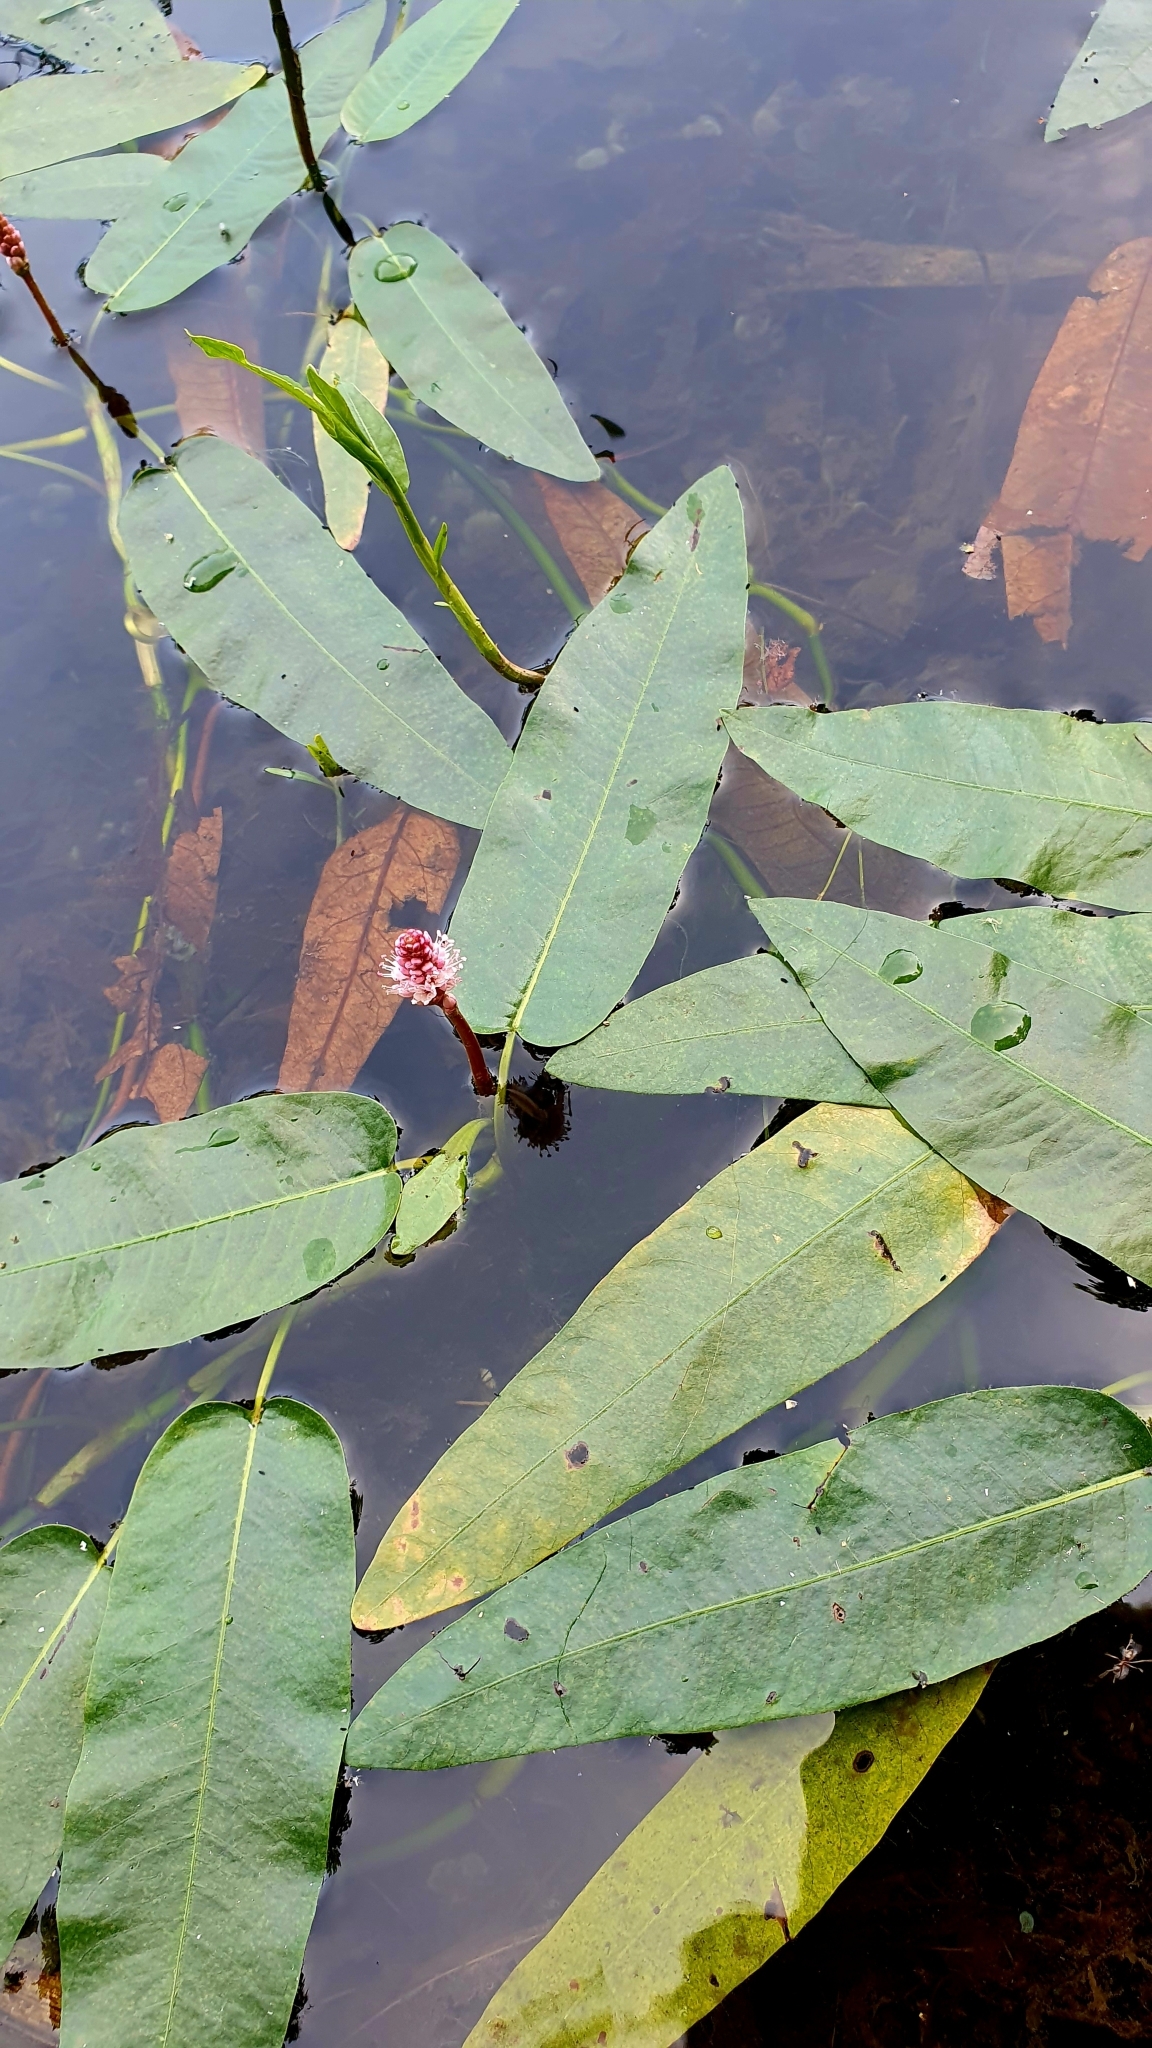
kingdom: Plantae
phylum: Tracheophyta
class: Magnoliopsida
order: Caryophyllales
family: Polygonaceae
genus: Persicaria
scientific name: Persicaria amphibia
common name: Amphibious bistort
